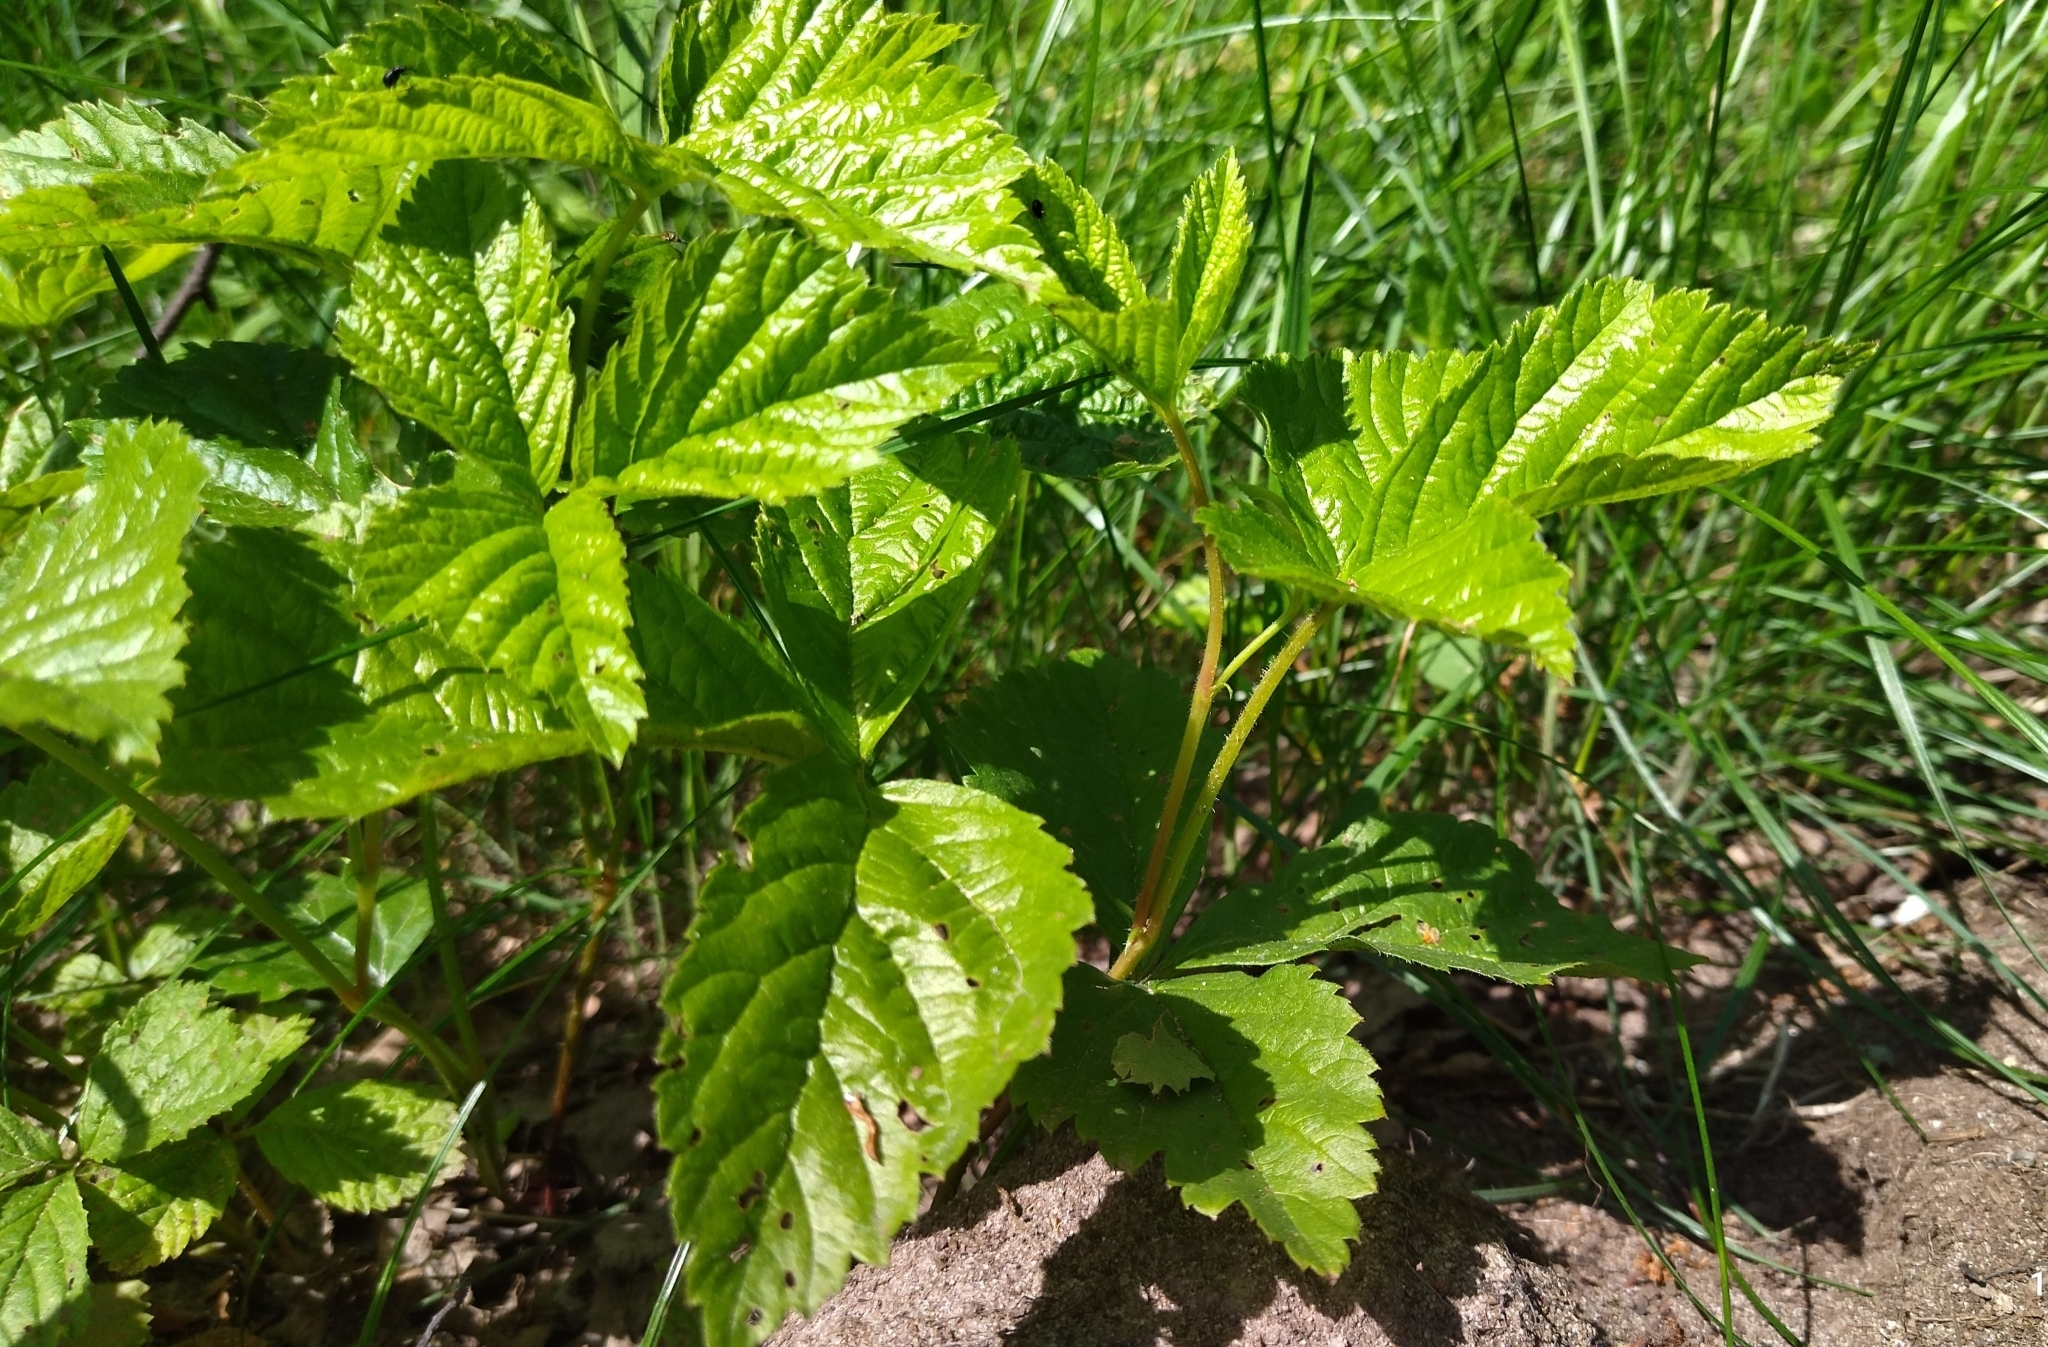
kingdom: Plantae
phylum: Tracheophyta
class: Magnoliopsida
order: Rosales
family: Rosaceae
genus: Rubus
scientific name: Rubus saxatilis
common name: Stone bramble
